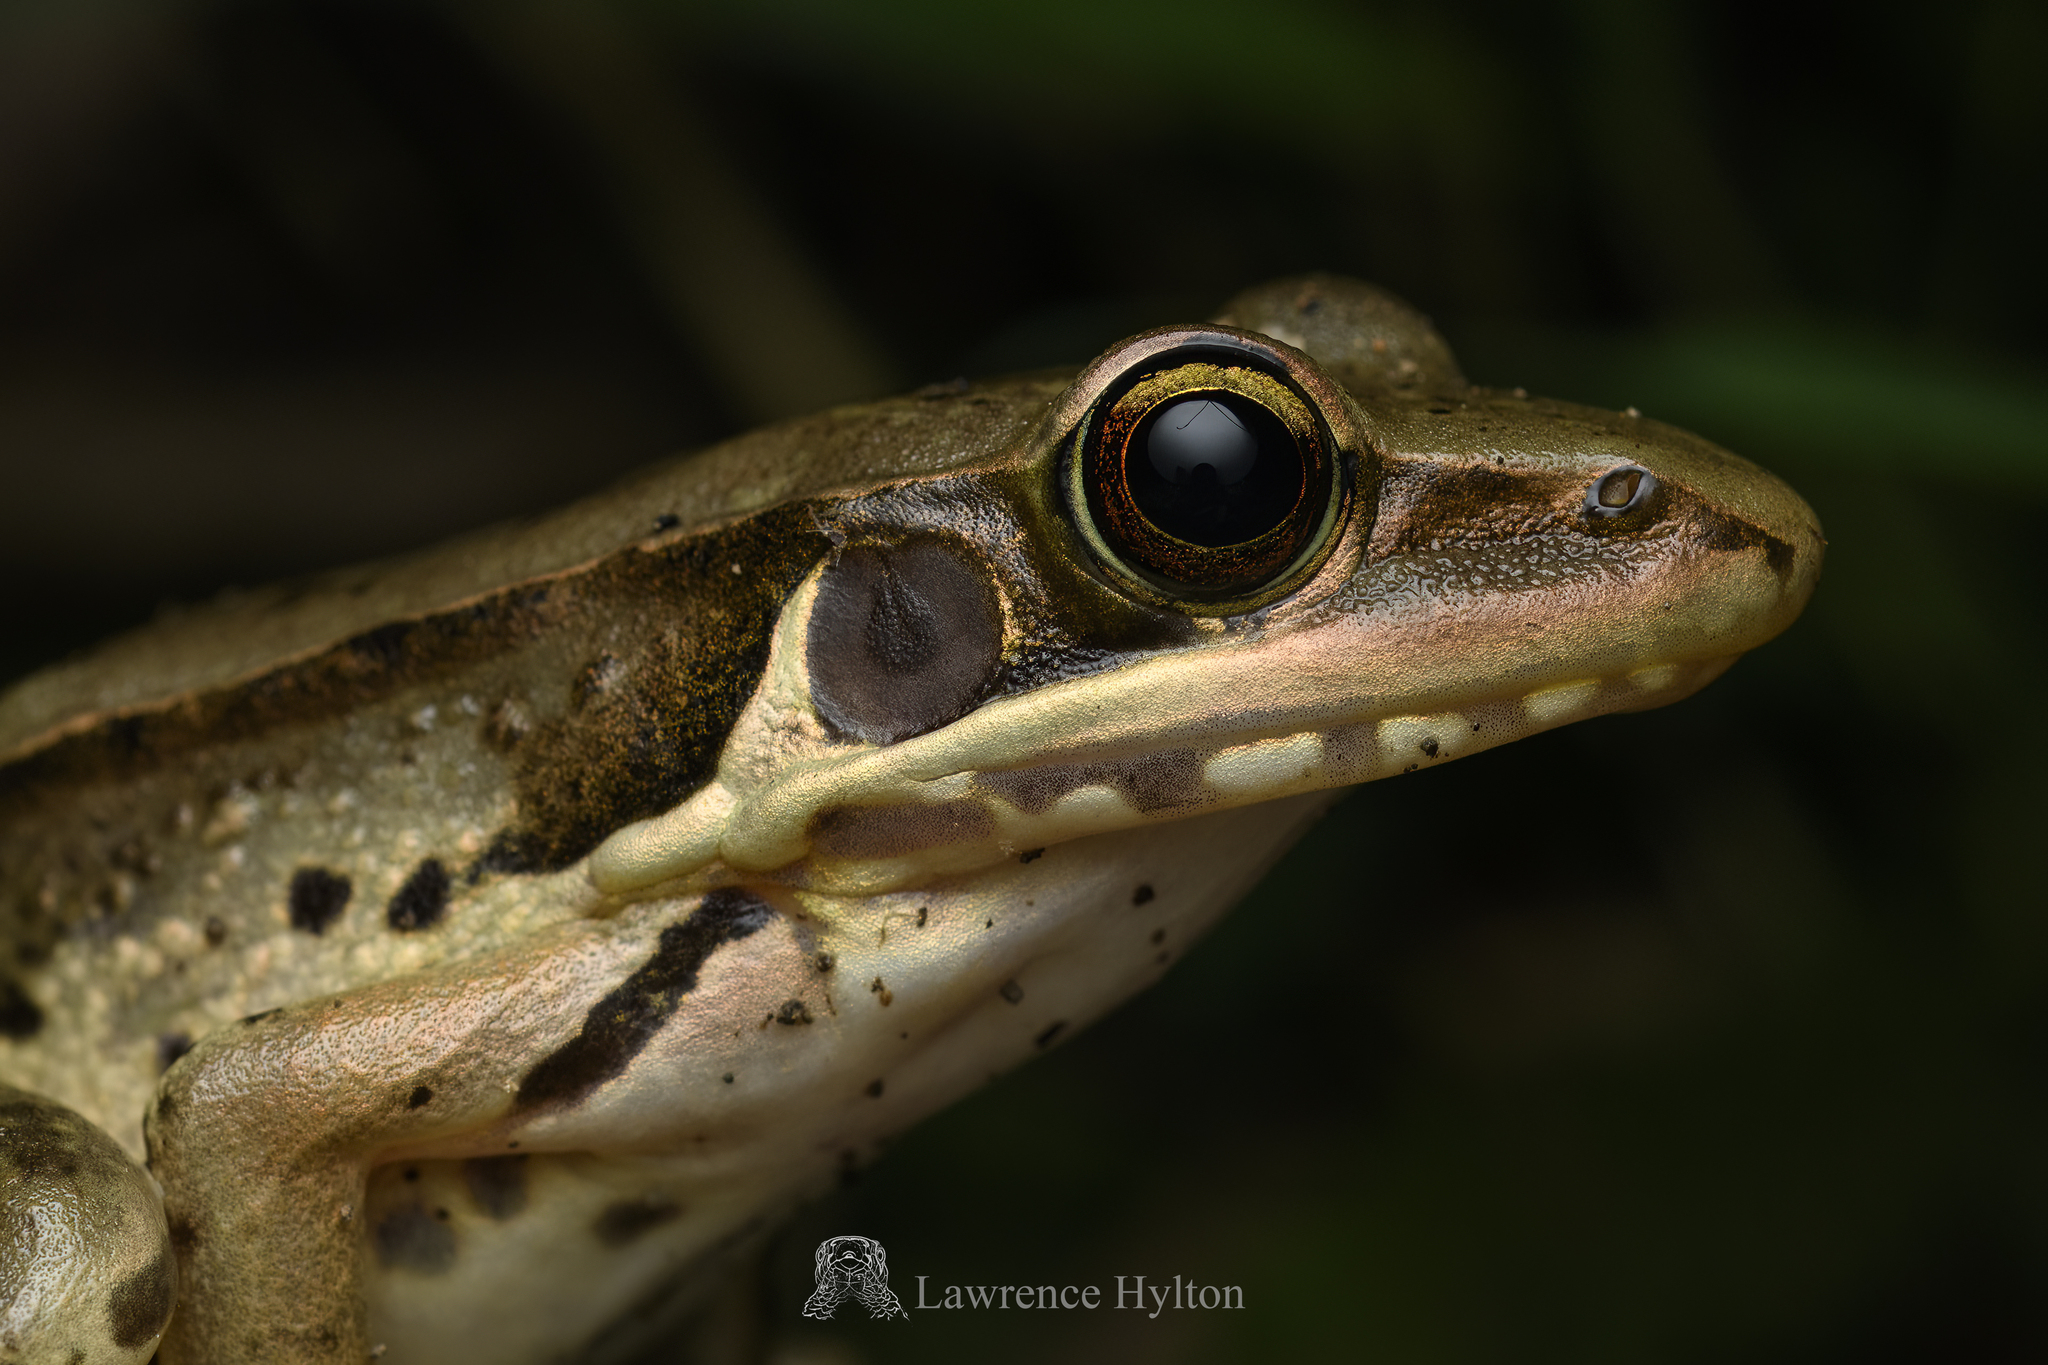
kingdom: Animalia
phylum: Chordata
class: Amphibia
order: Anura
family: Ranidae
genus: Sylvirana
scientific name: Sylvirana guentheri
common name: Guenther's amoy frog
